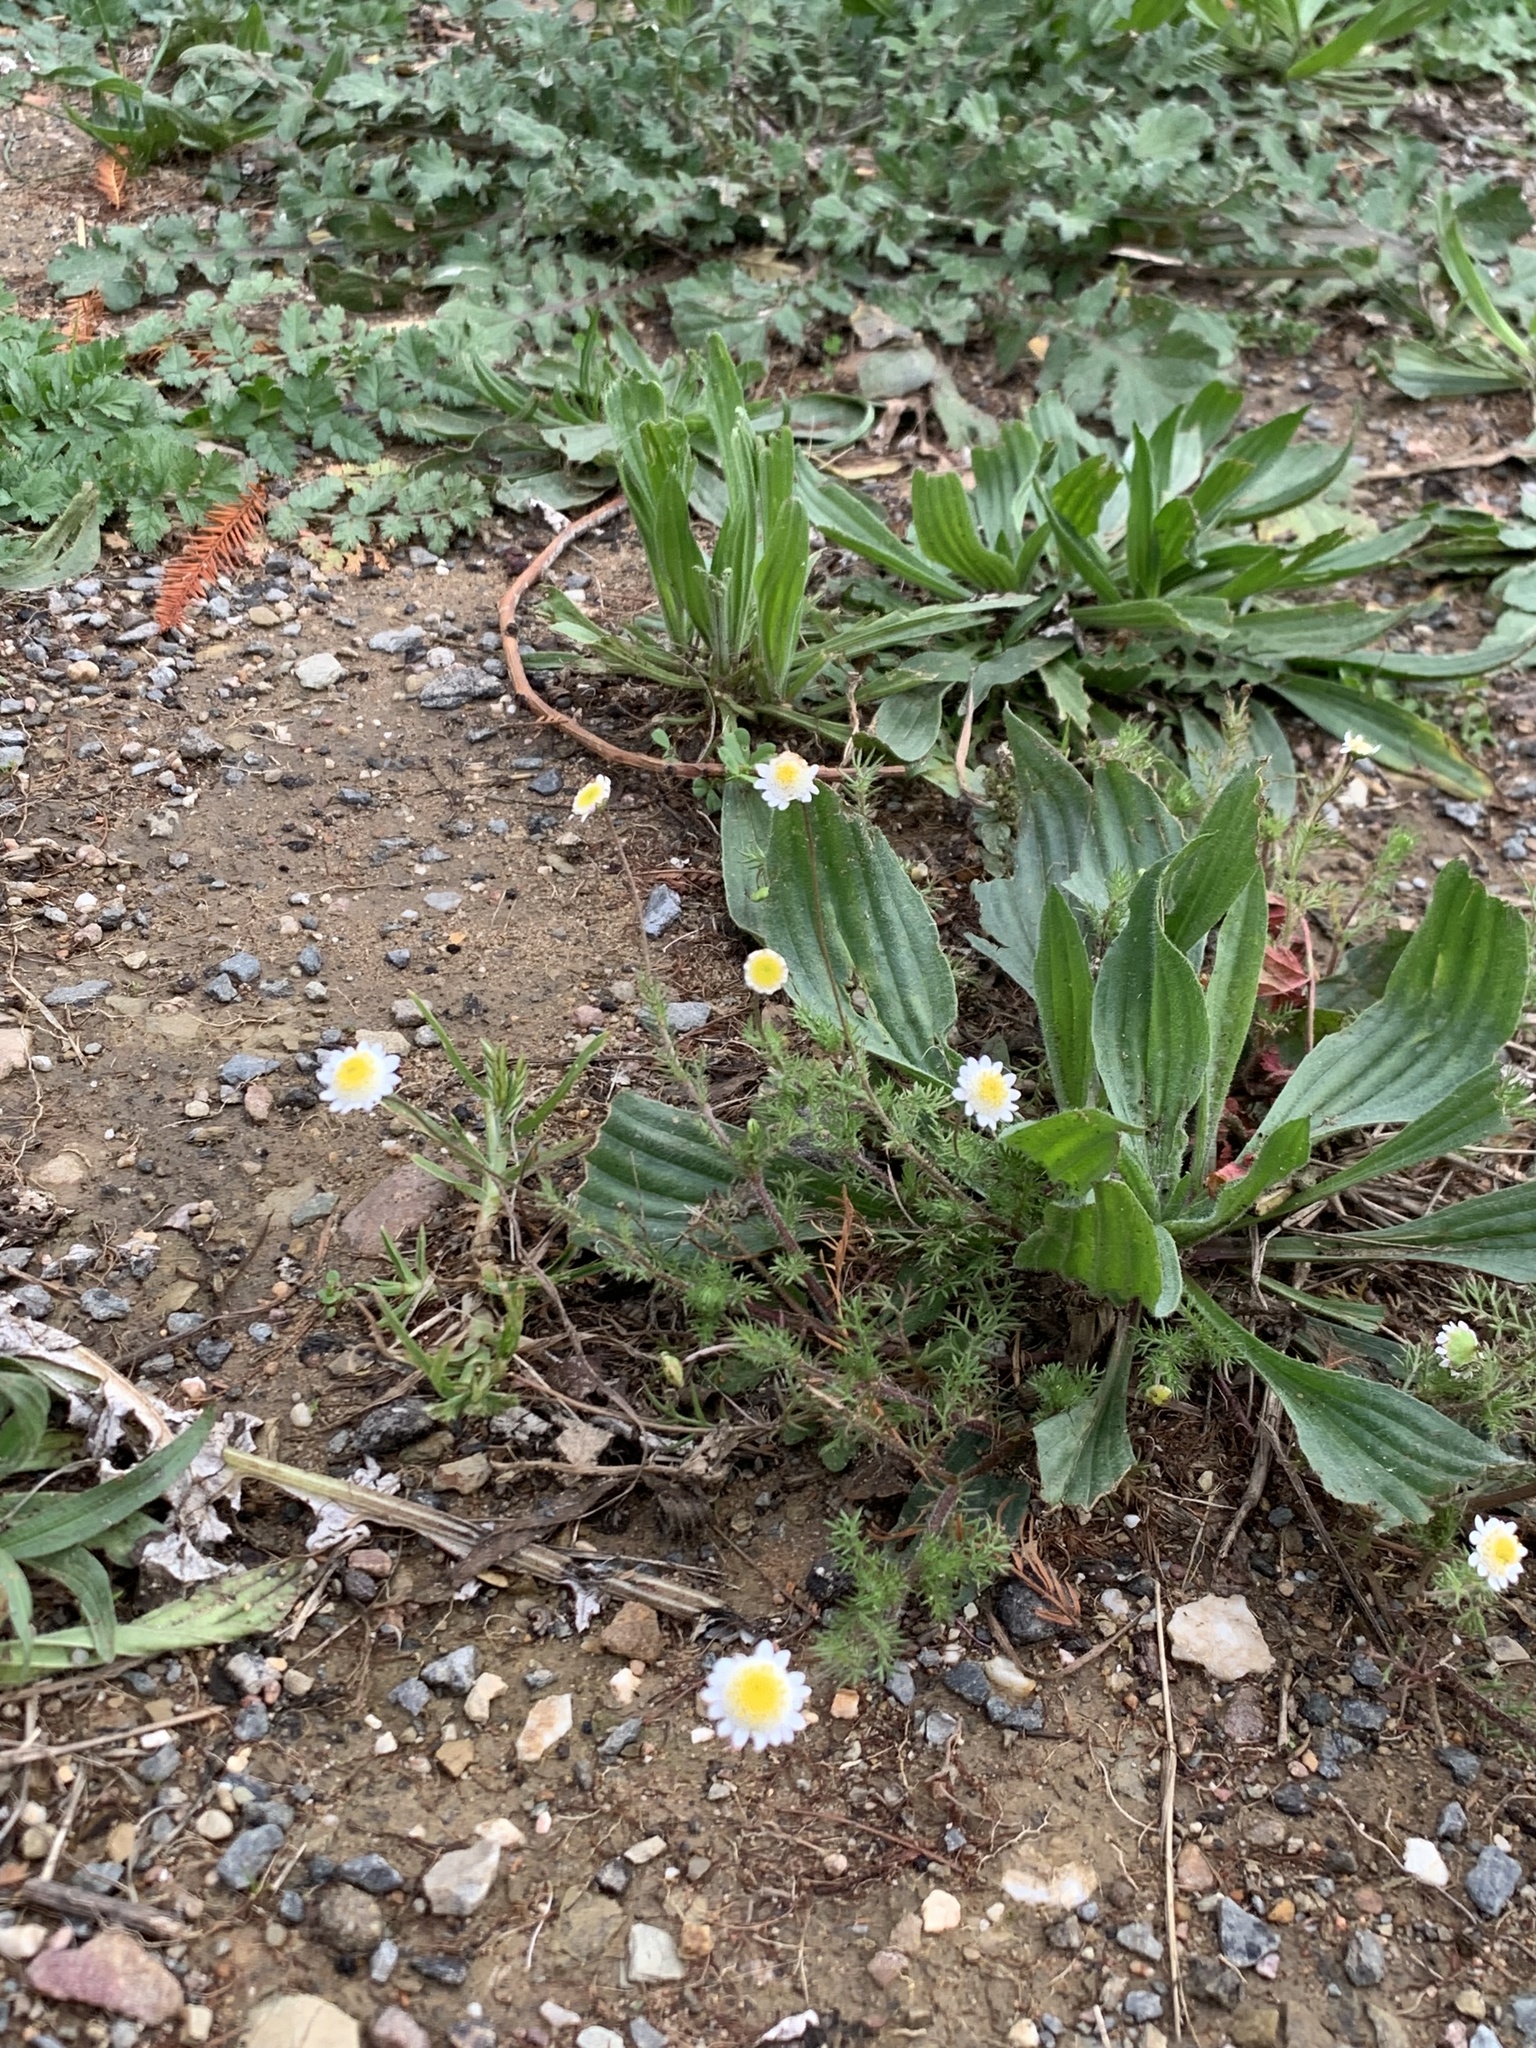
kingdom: Plantae
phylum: Tracheophyta
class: Magnoliopsida
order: Asterales
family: Asteraceae
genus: Cotula
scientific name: Cotula turbinata
